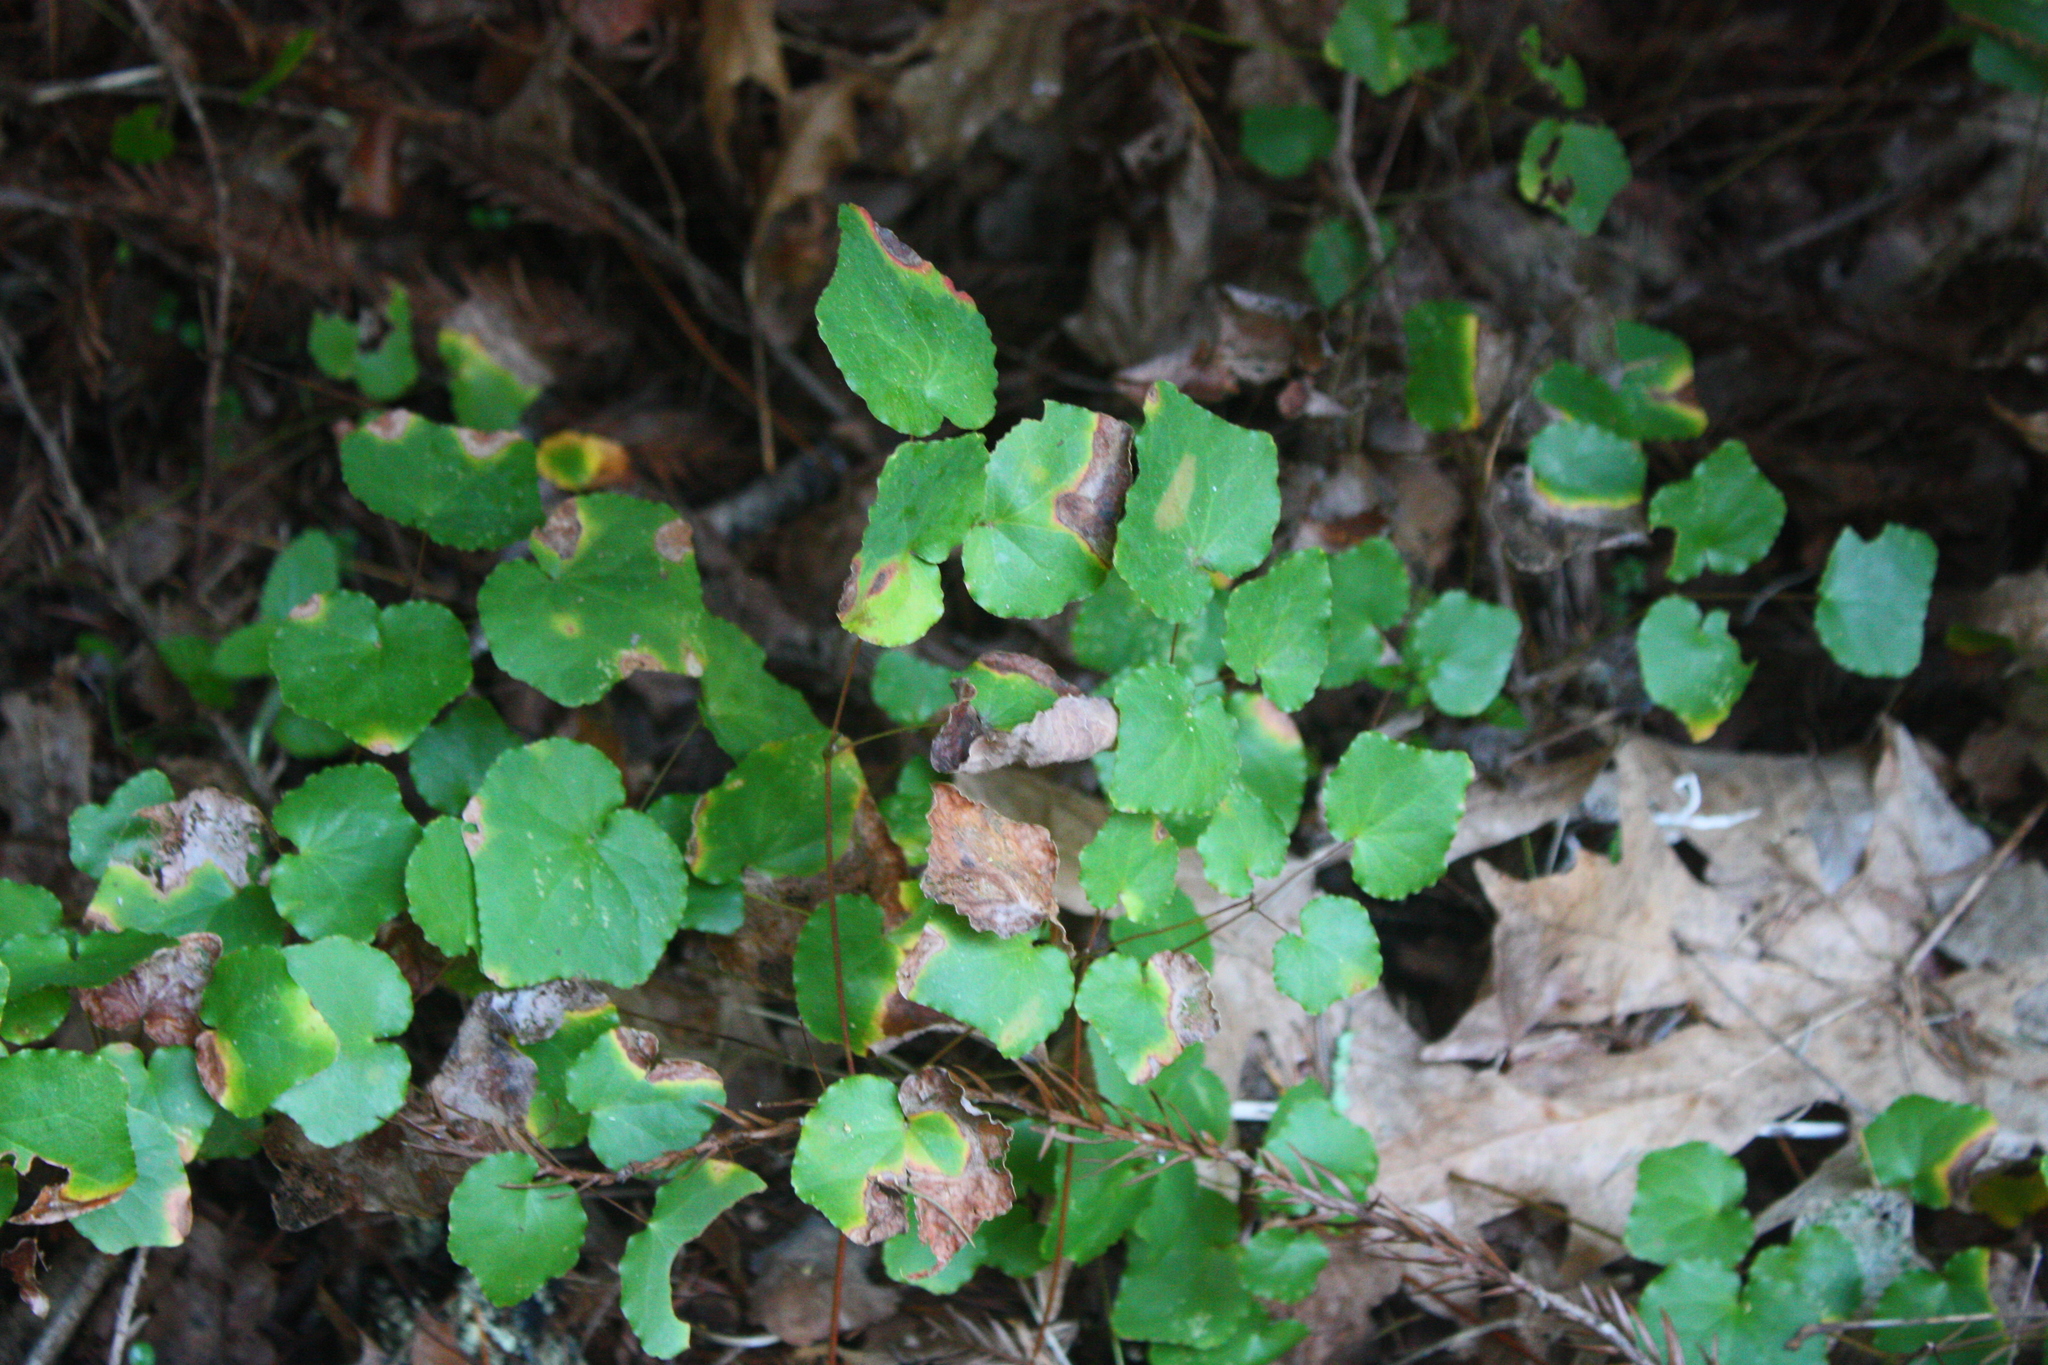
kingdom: Plantae
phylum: Tracheophyta
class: Magnoliopsida
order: Ranunculales
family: Berberidaceae
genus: Vancouveria
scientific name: Vancouveria planipetala
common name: Redwood-ivy
